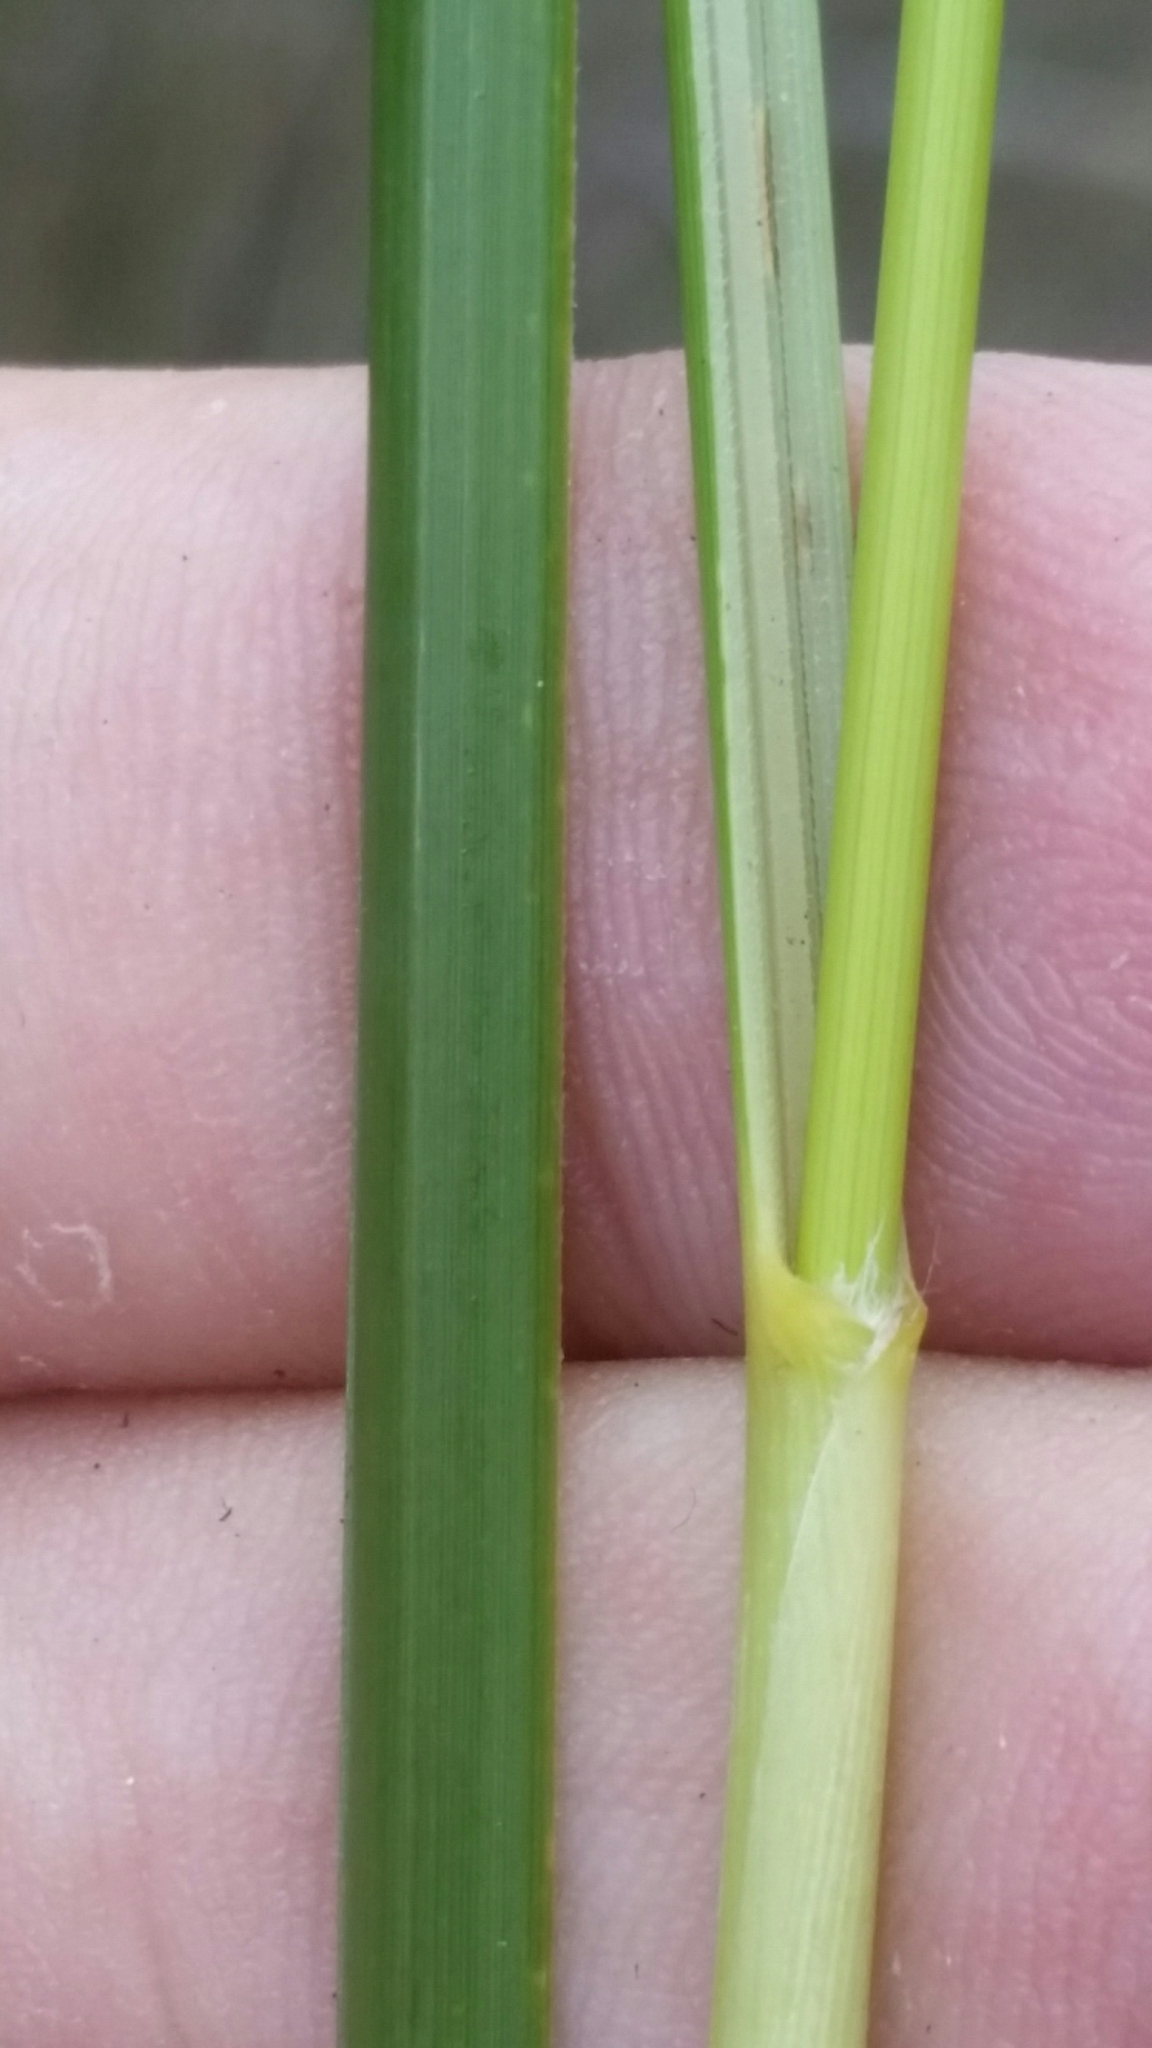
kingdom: Plantae
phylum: Tracheophyta
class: Liliopsida
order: Poales
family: Poaceae
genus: Sporobolus
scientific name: Sporobolus bakeri
